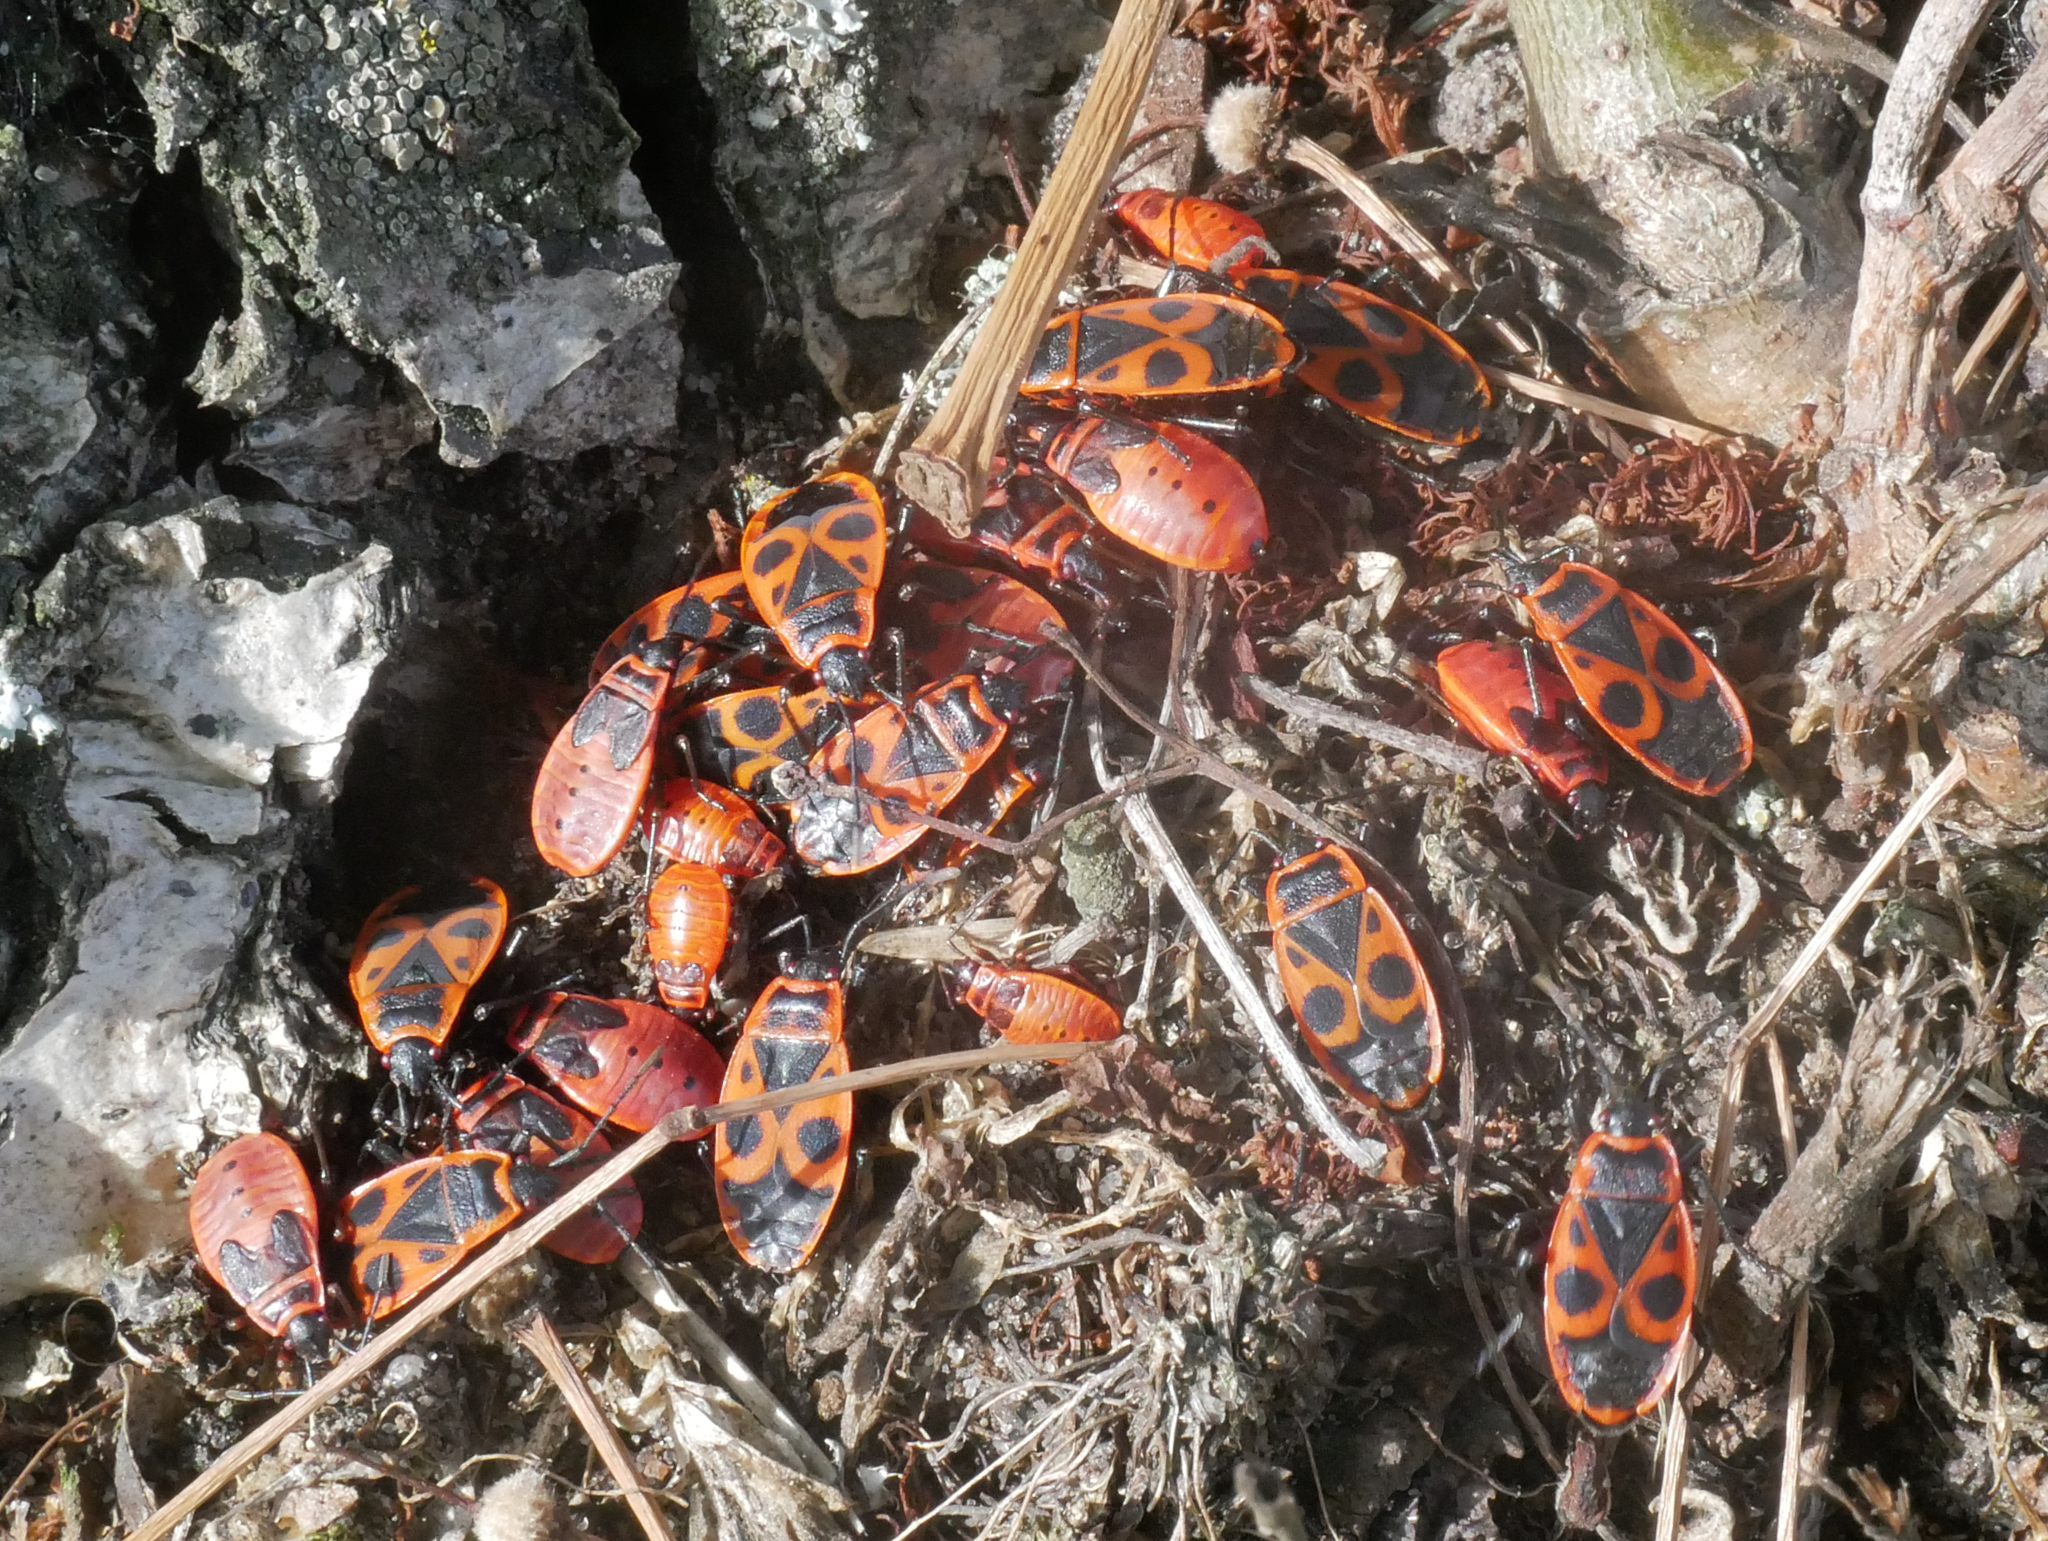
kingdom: Animalia
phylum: Arthropoda
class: Insecta
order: Hemiptera
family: Pyrrhocoridae
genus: Pyrrhocoris
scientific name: Pyrrhocoris apterus
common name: Firebug
